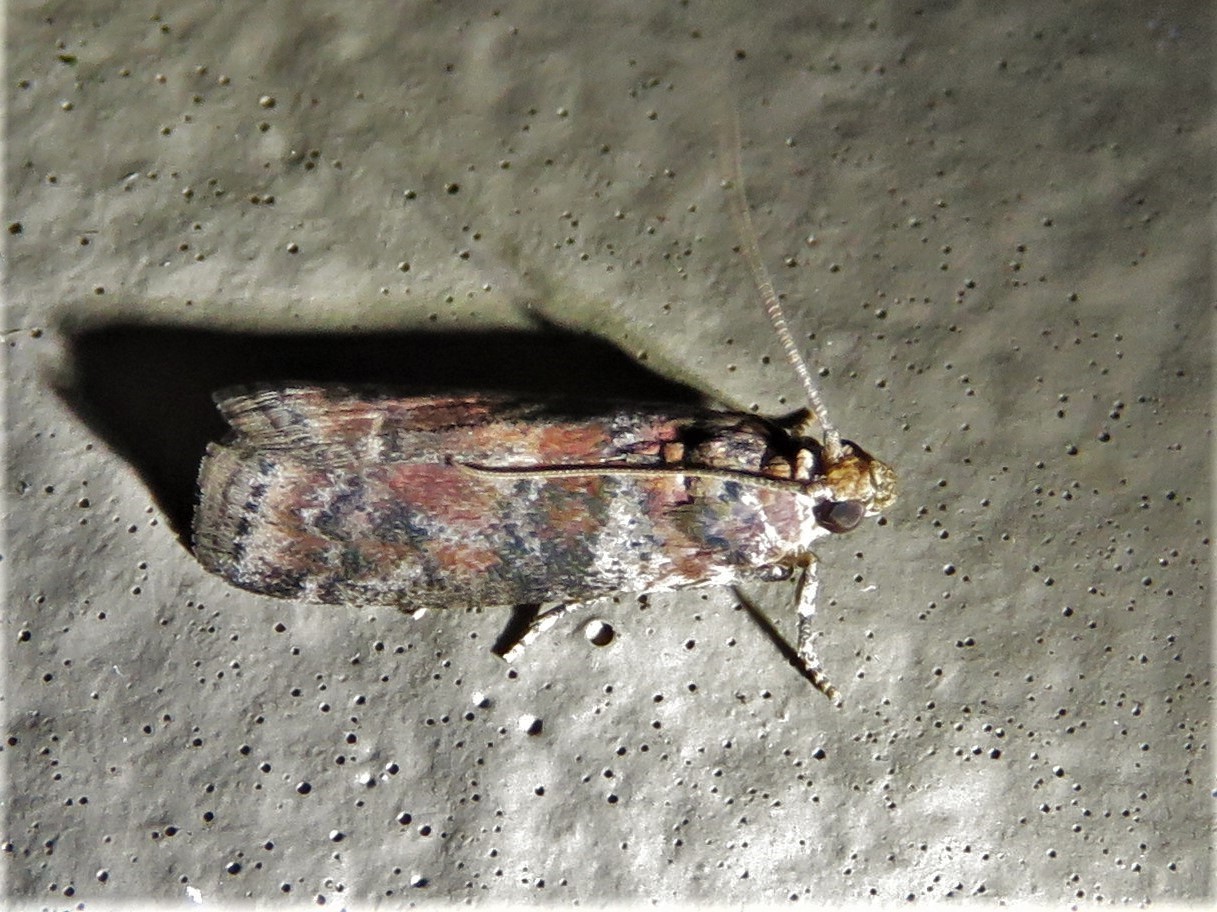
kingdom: Animalia
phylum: Arthropoda
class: Insecta
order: Lepidoptera
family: Pyralidae
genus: Sciota
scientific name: Sciota
